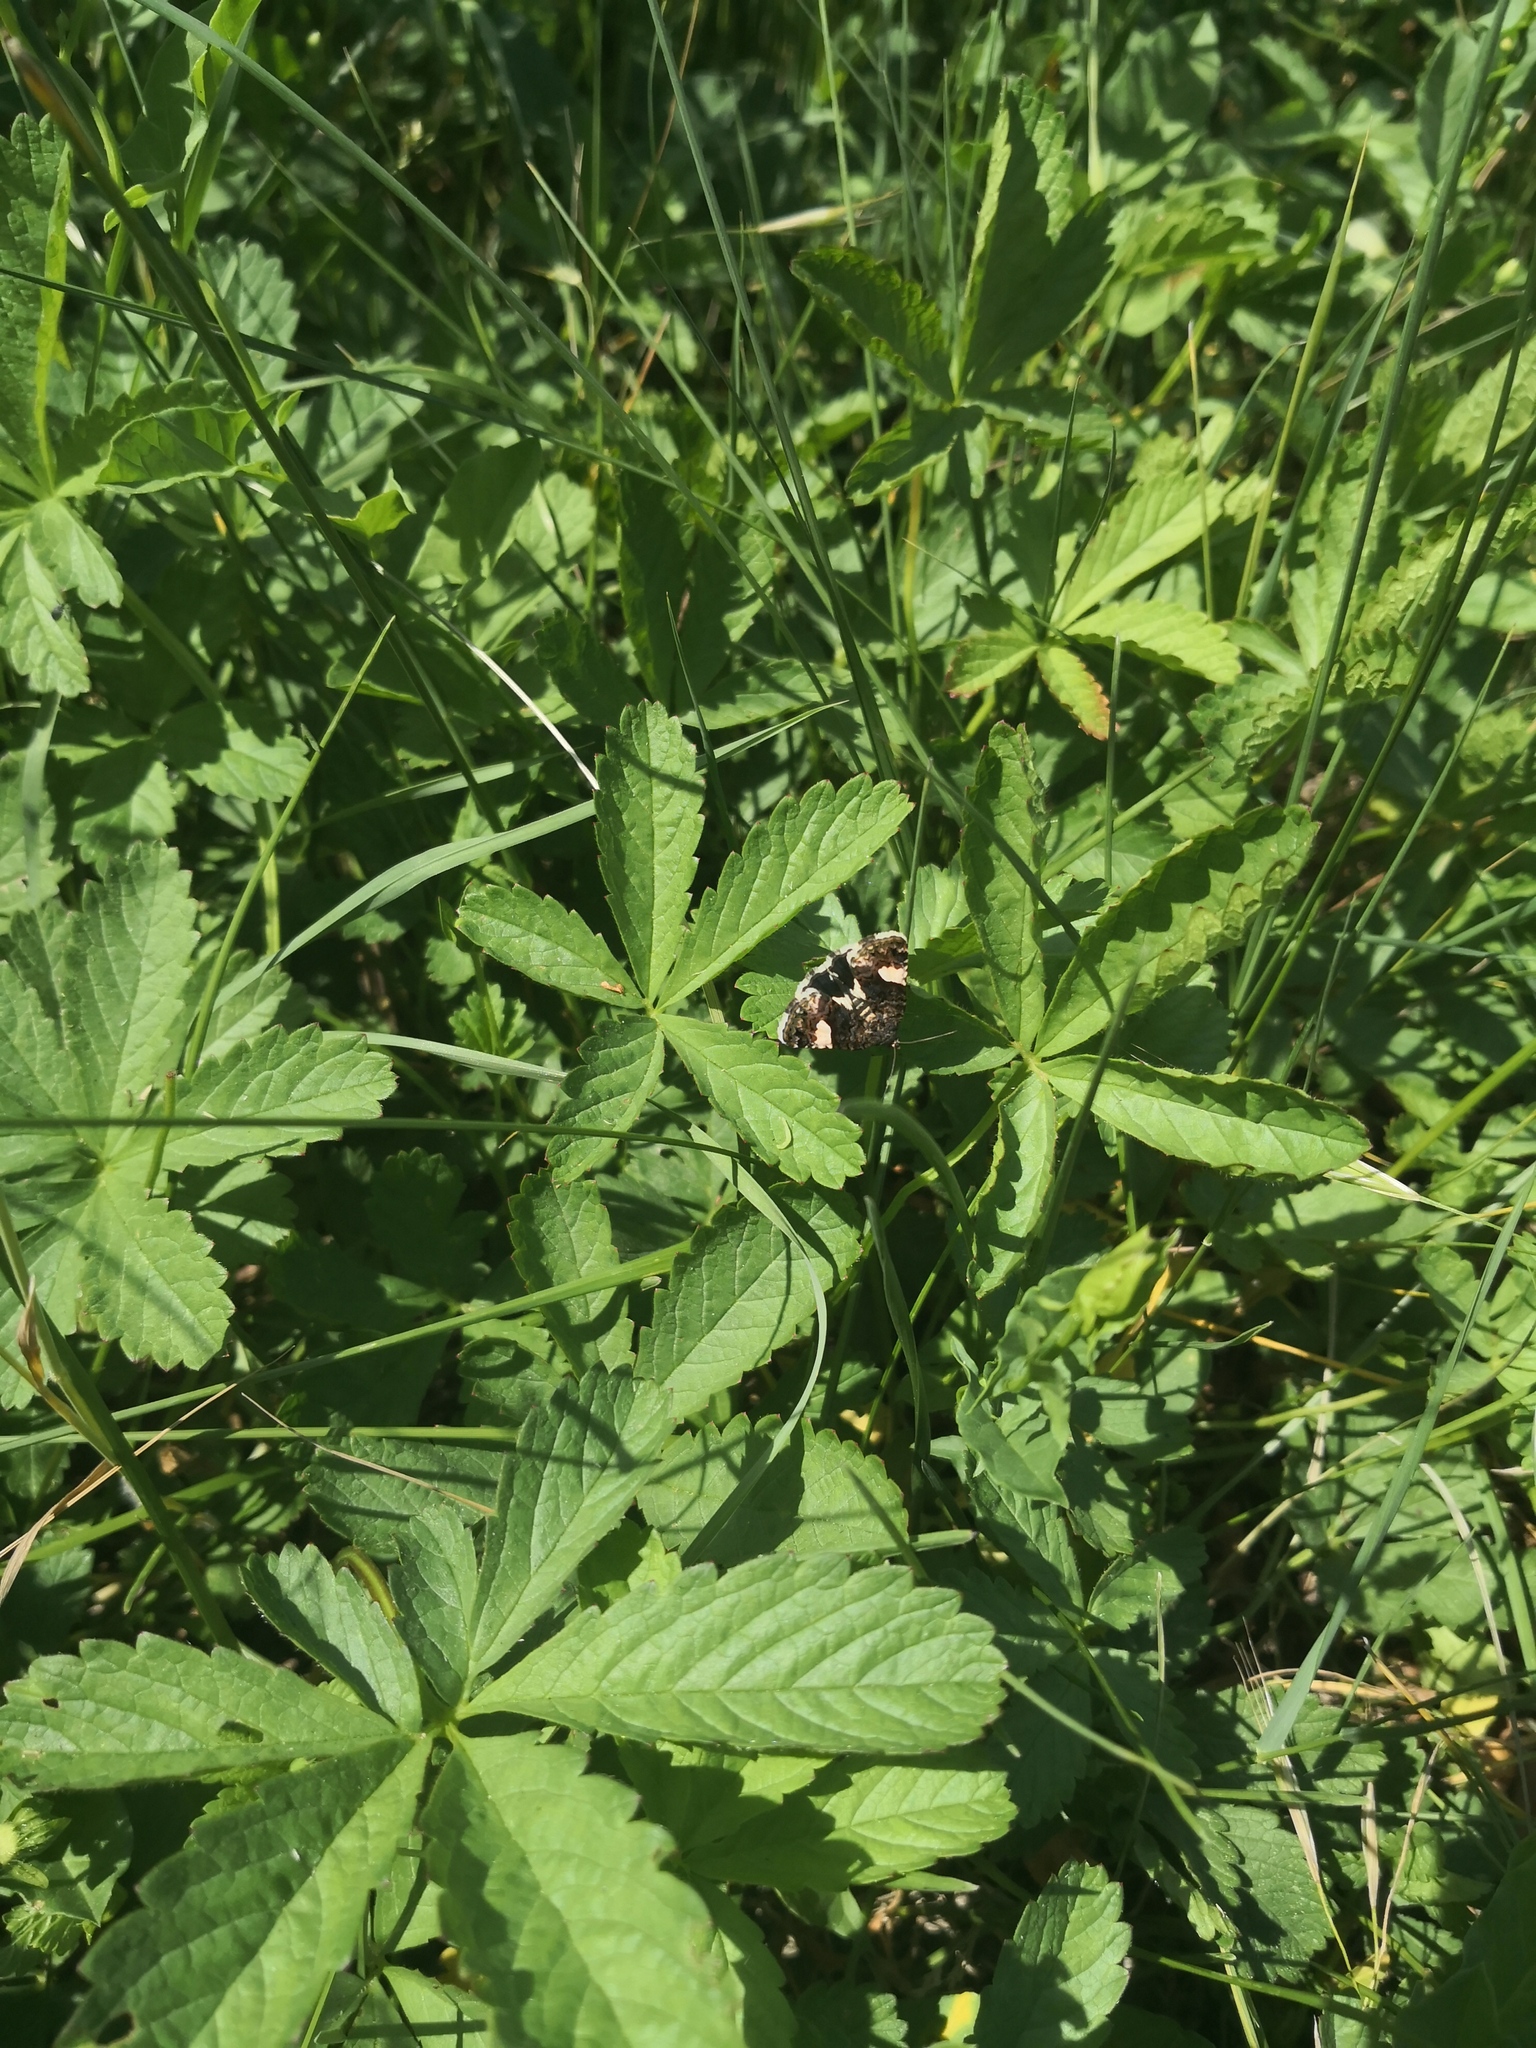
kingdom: Animalia
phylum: Arthropoda
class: Insecta
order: Lepidoptera
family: Erebidae
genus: Tyta
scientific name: Tyta luctuosa
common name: Four-spotted
